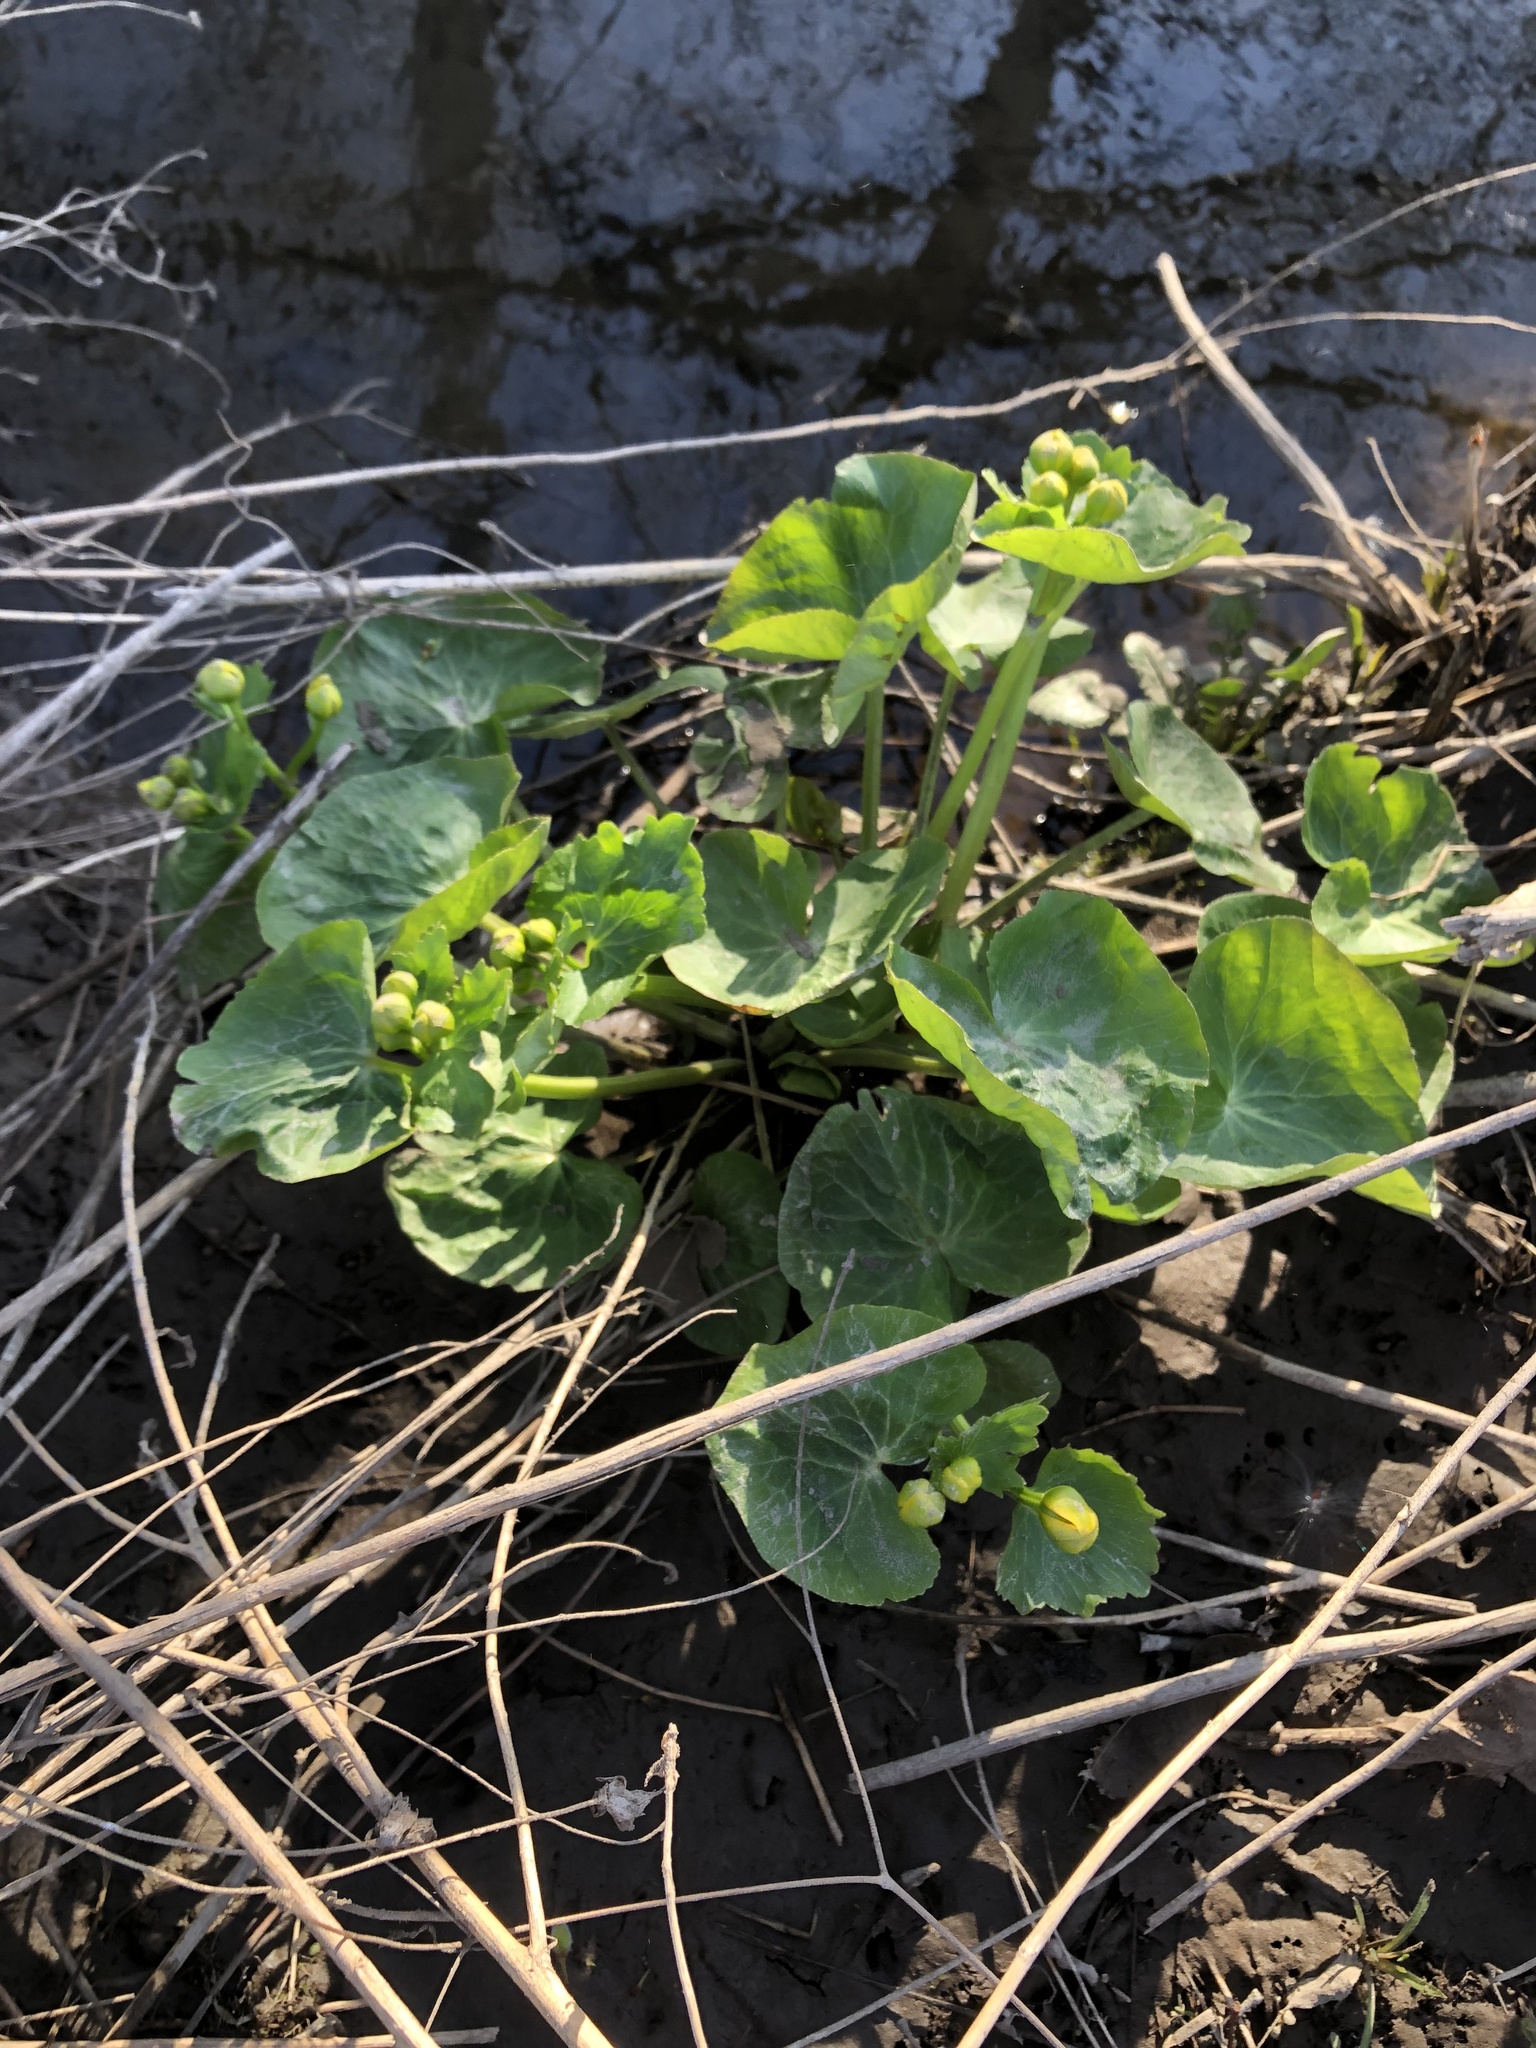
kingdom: Plantae
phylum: Tracheophyta
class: Magnoliopsida
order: Ranunculales
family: Ranunculaceae
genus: Caltha
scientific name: Caltha palustris
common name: Marsh marigold
